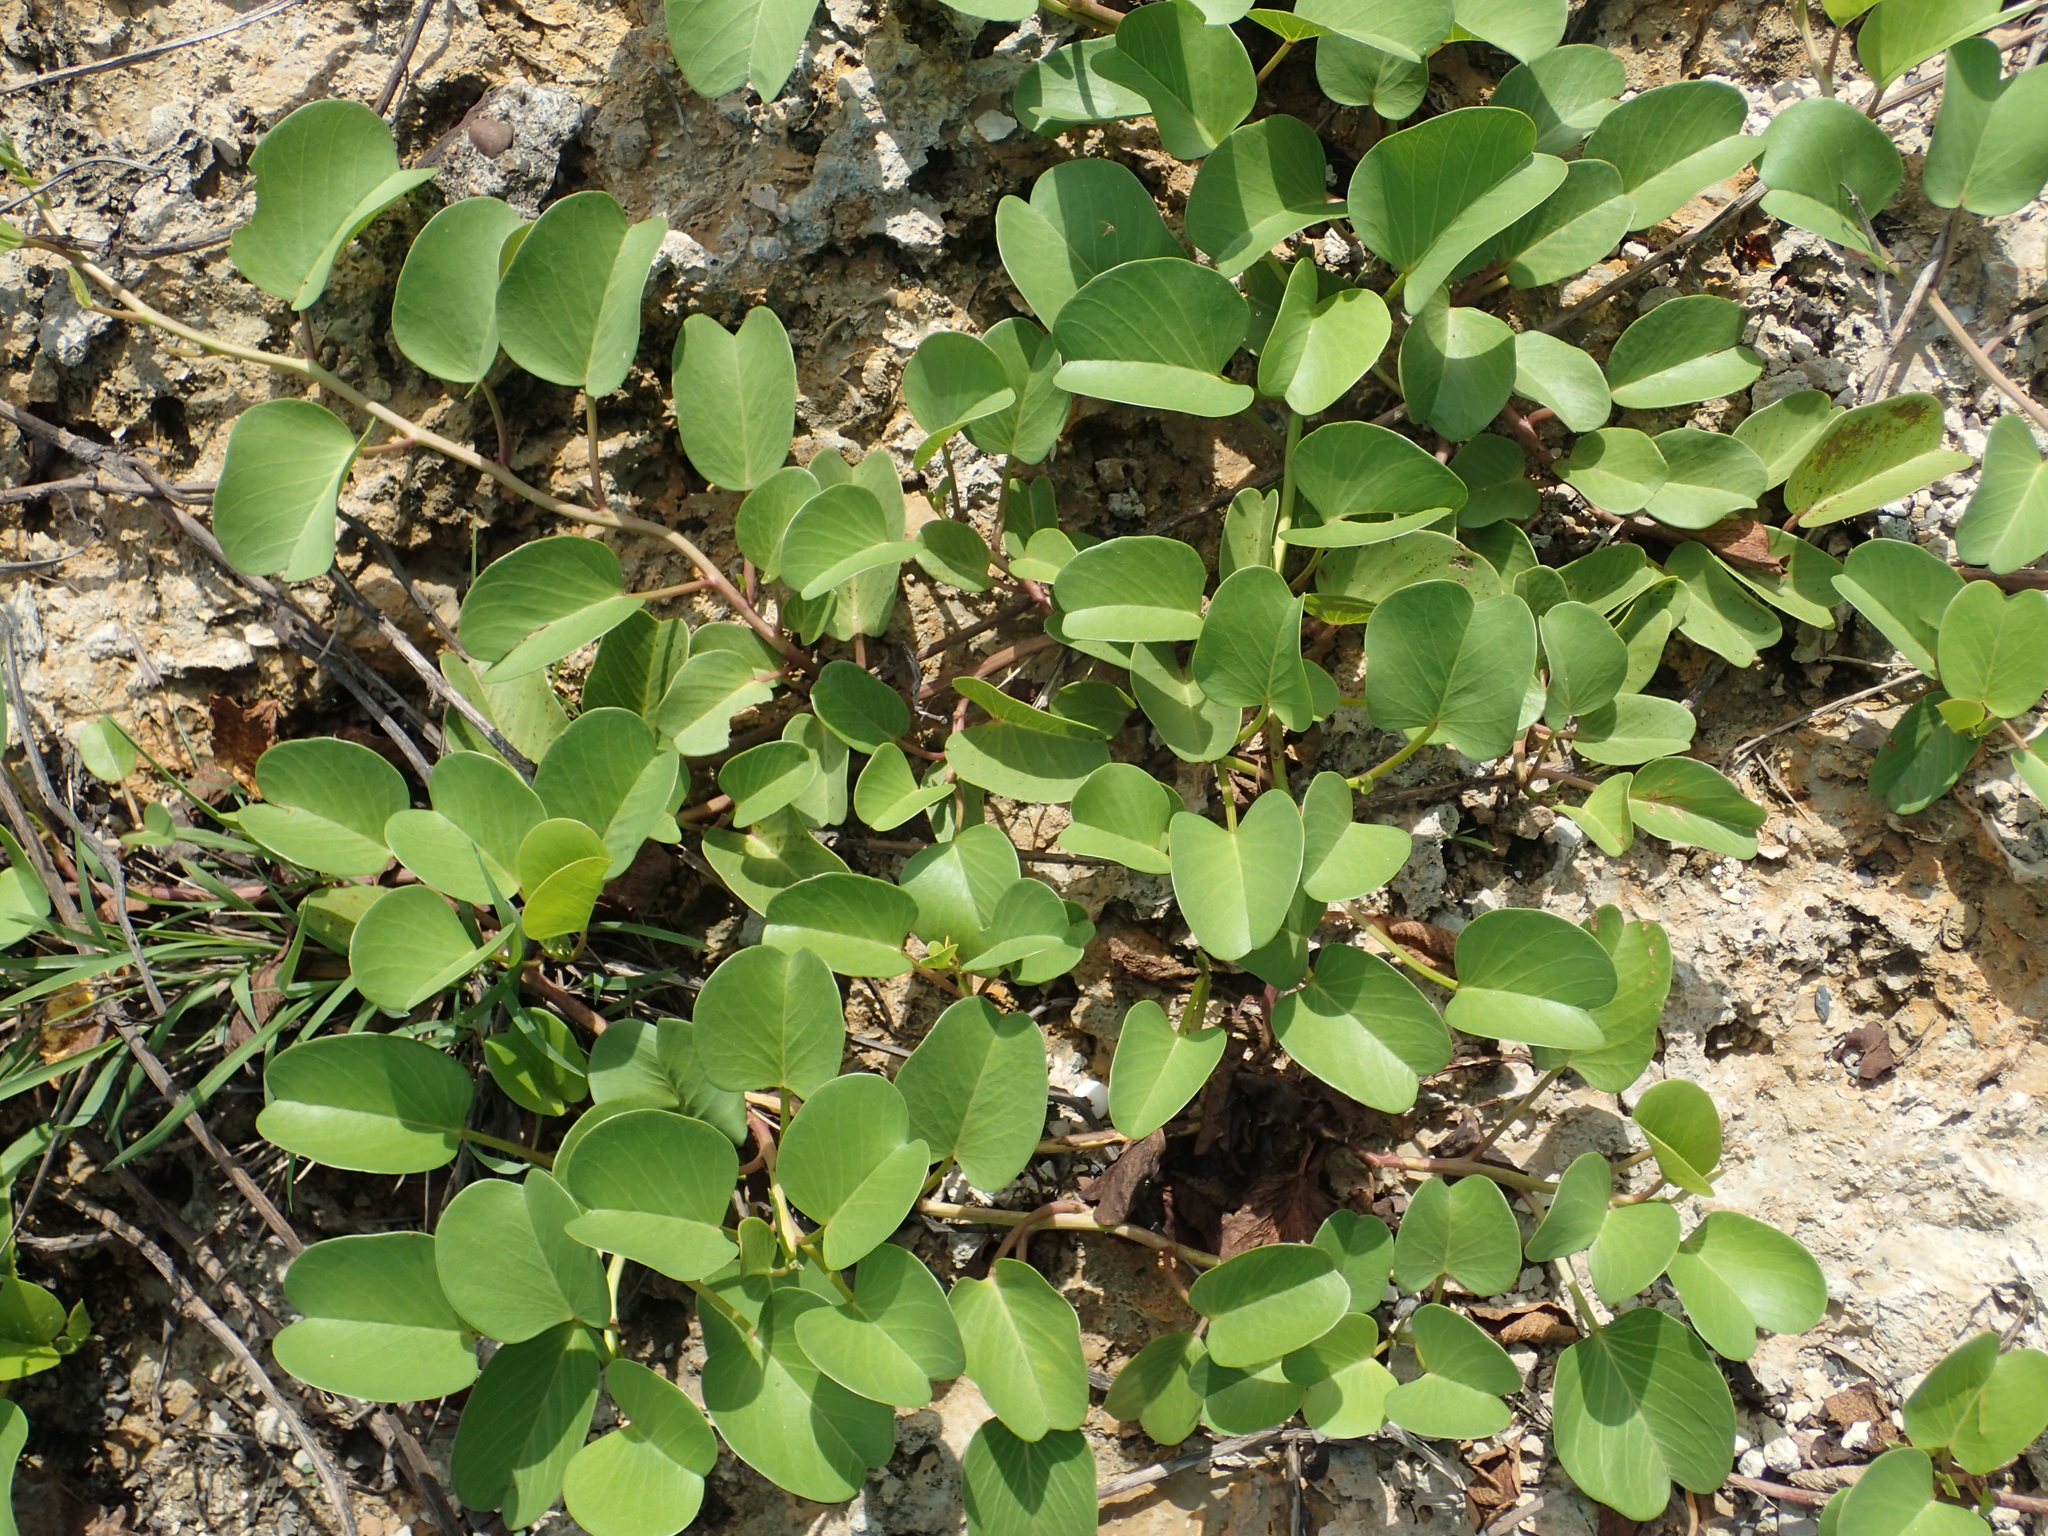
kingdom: Plantae
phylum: Tracheophyta
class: Magnoliopsida
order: Solanales
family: Convolvulaceae
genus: Ipomoea
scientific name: Ipomoea pes-caprae
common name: Beach morning glory
